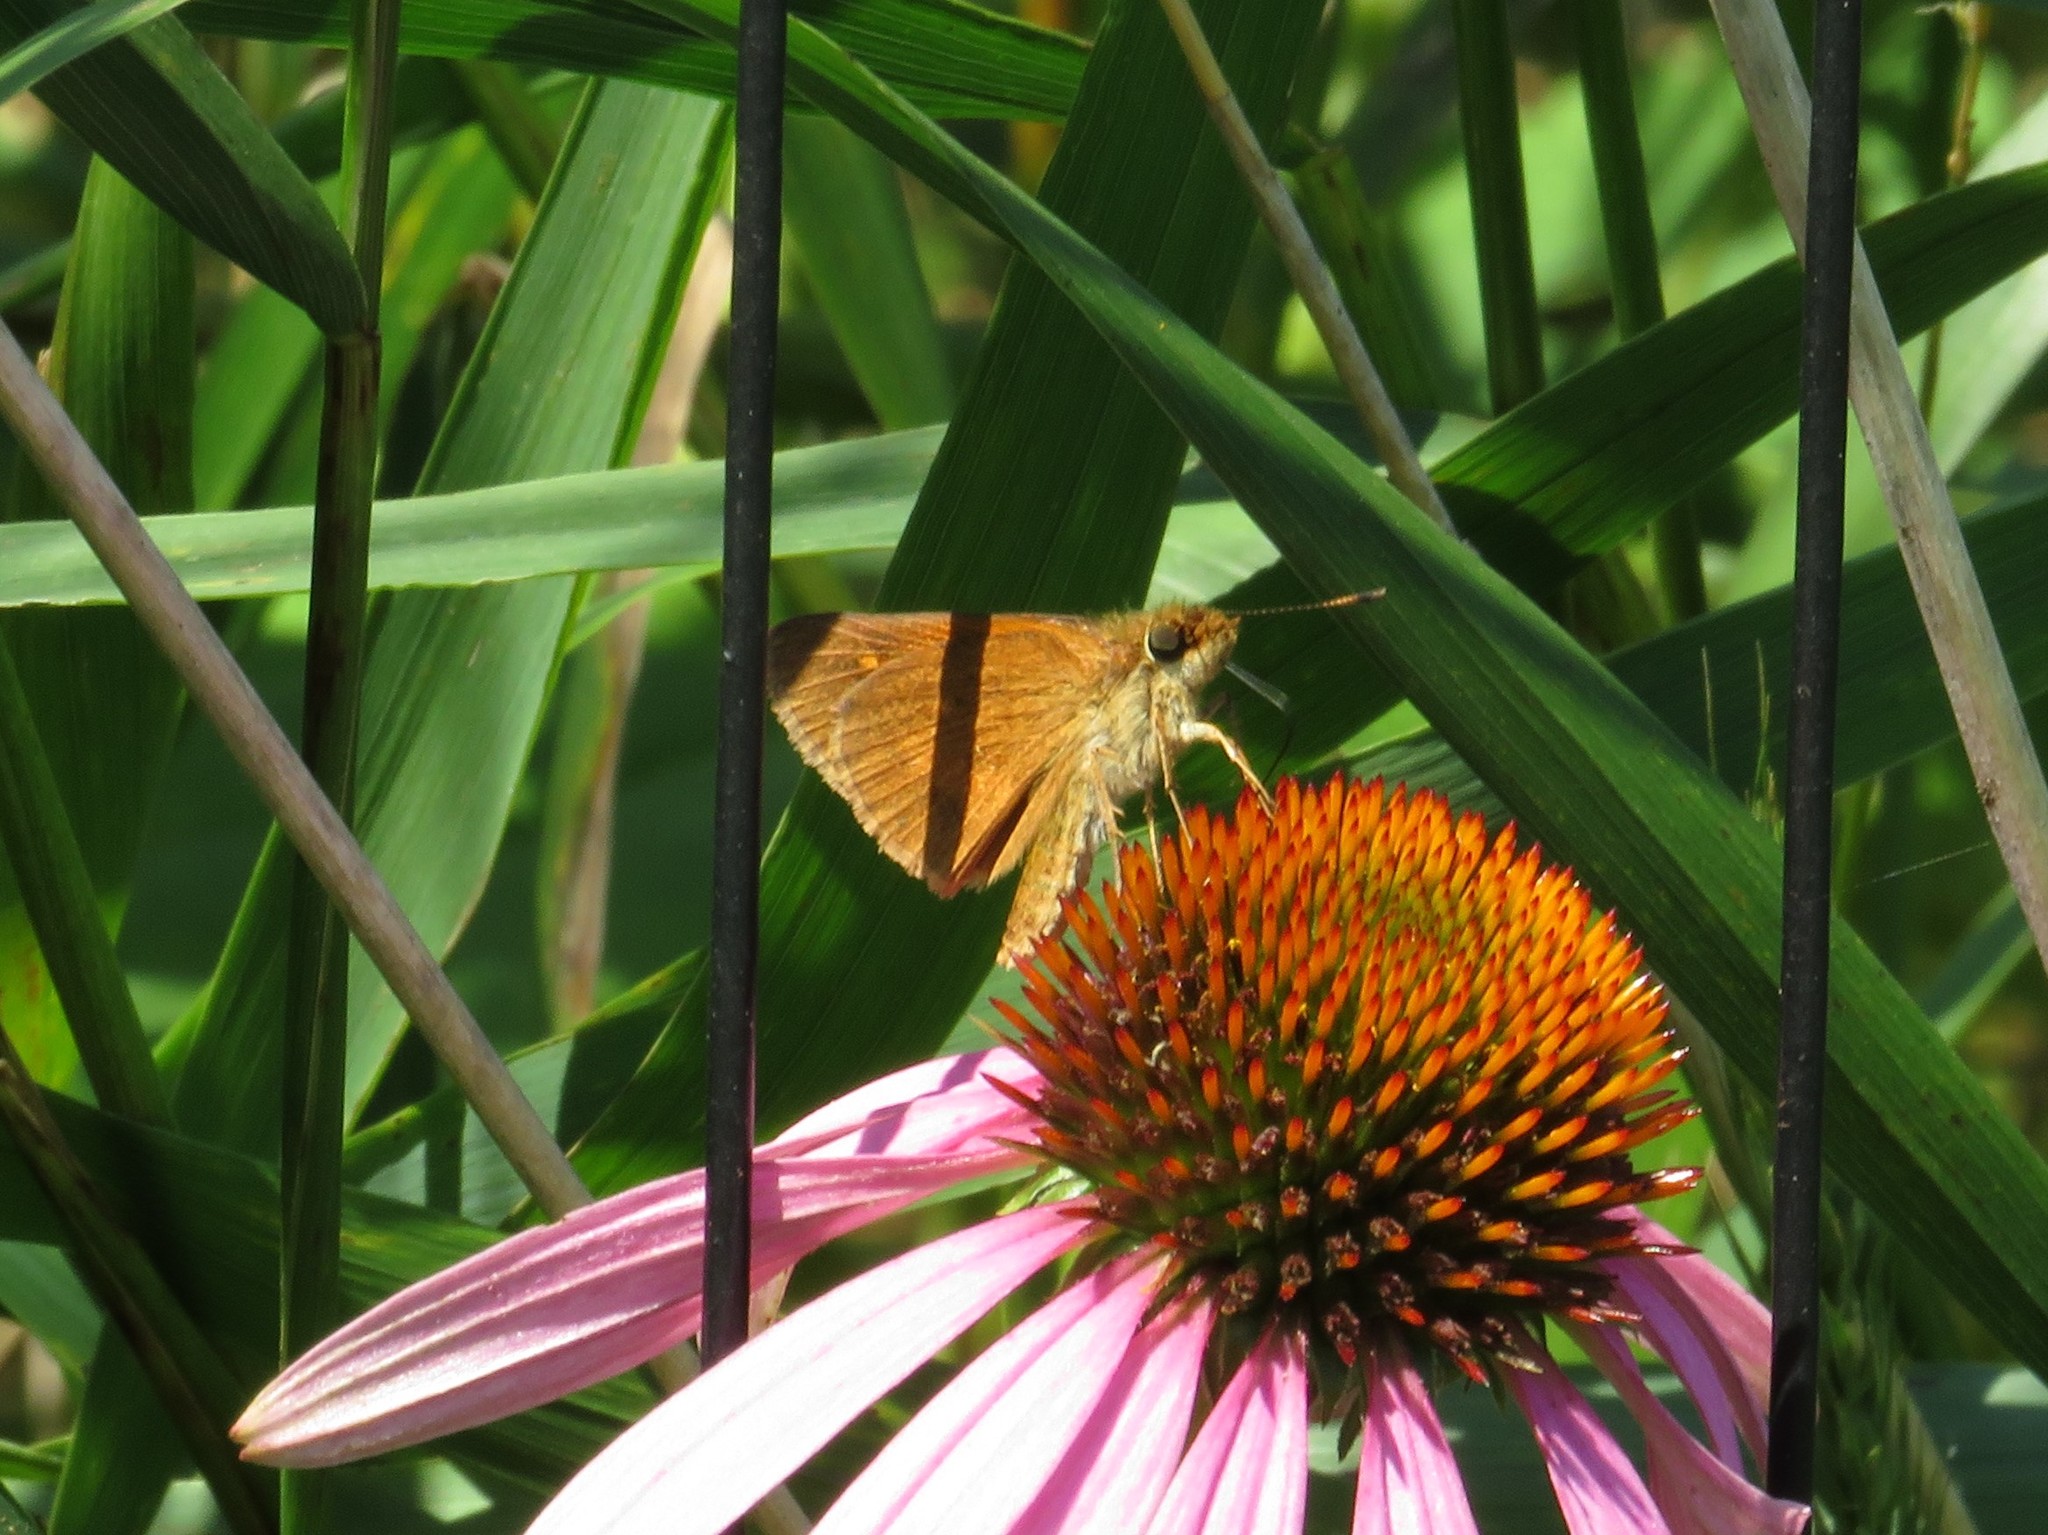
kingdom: Animalia
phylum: Arthropoda
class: Insecta
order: Lepidoptera
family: Hesperiidae
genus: Poanes
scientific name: Poanes viator
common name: Broad-winged skipper
